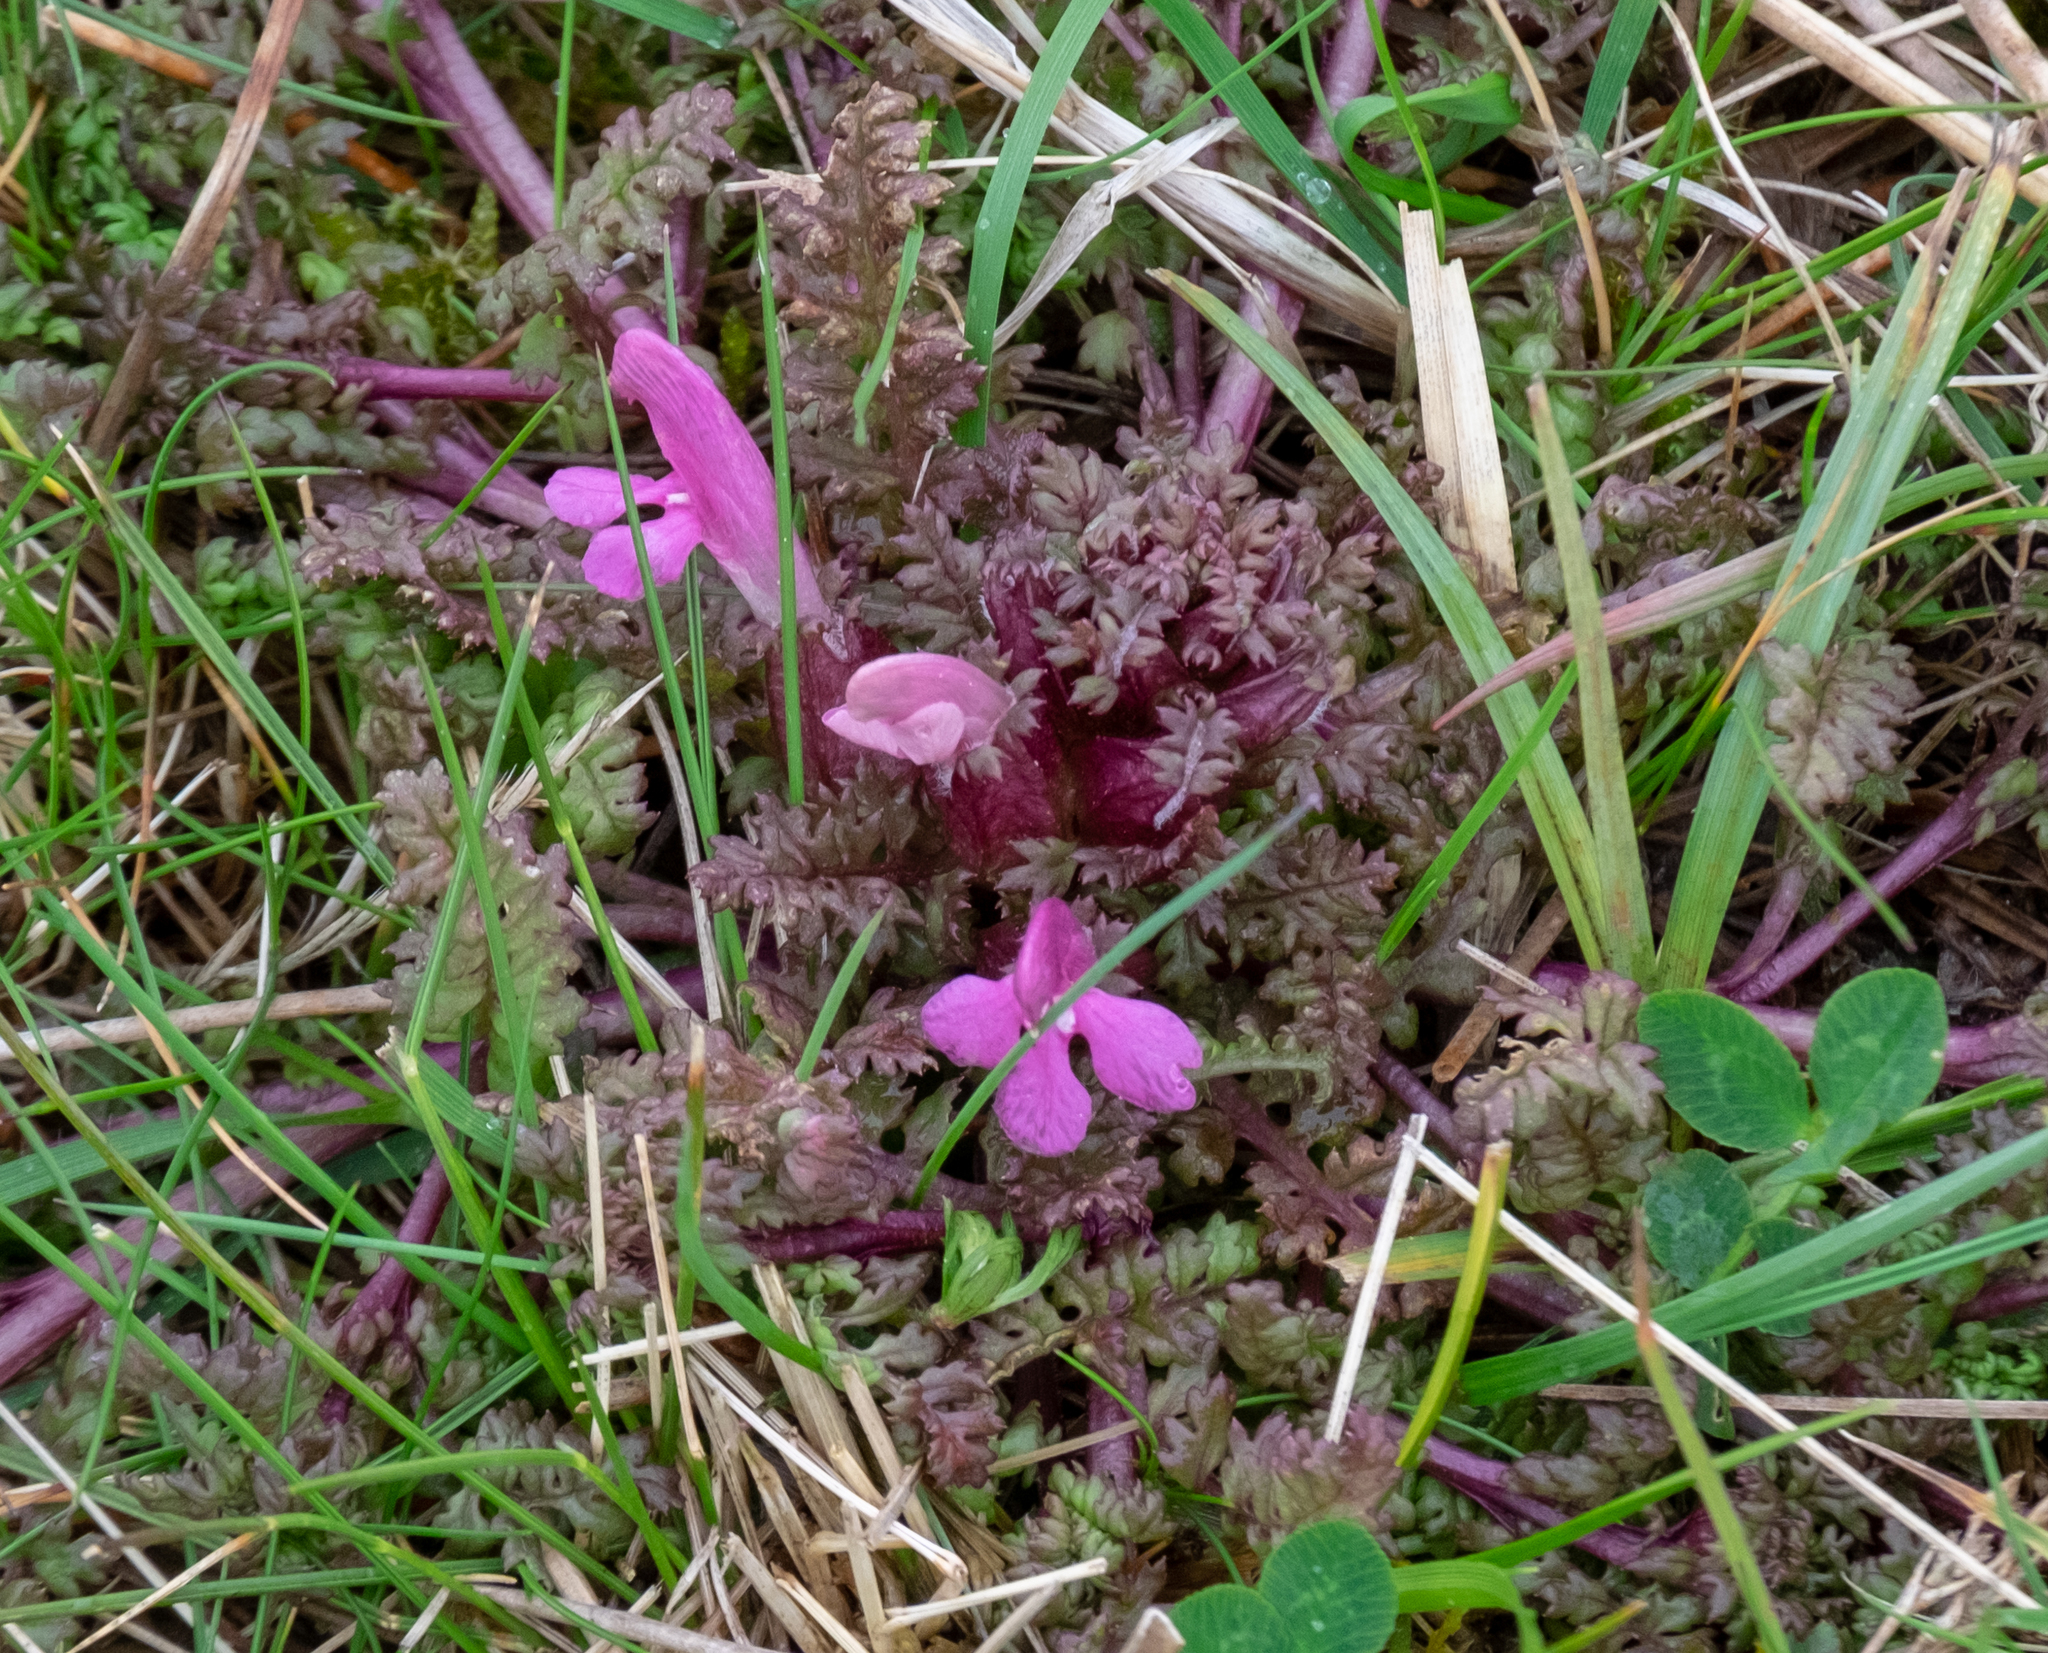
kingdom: Plantae
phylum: Tracheophyta
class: Magnoliopsida
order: Lamiales
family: Orobanchaceae
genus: Pedicularis
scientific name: Pedicularis sylvatica
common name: Lousewort
